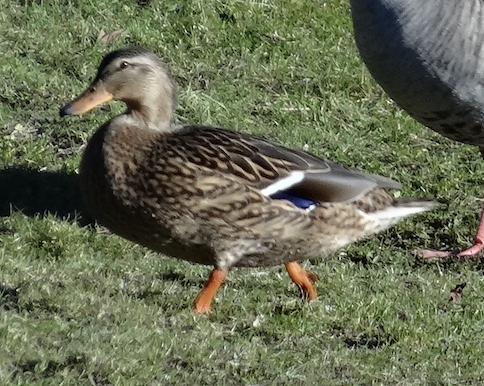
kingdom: Animalia
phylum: Chordata
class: Aves
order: Anseriformes
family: Anatidae
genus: Anas
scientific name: Anas platyrhynchos
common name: Mallard
